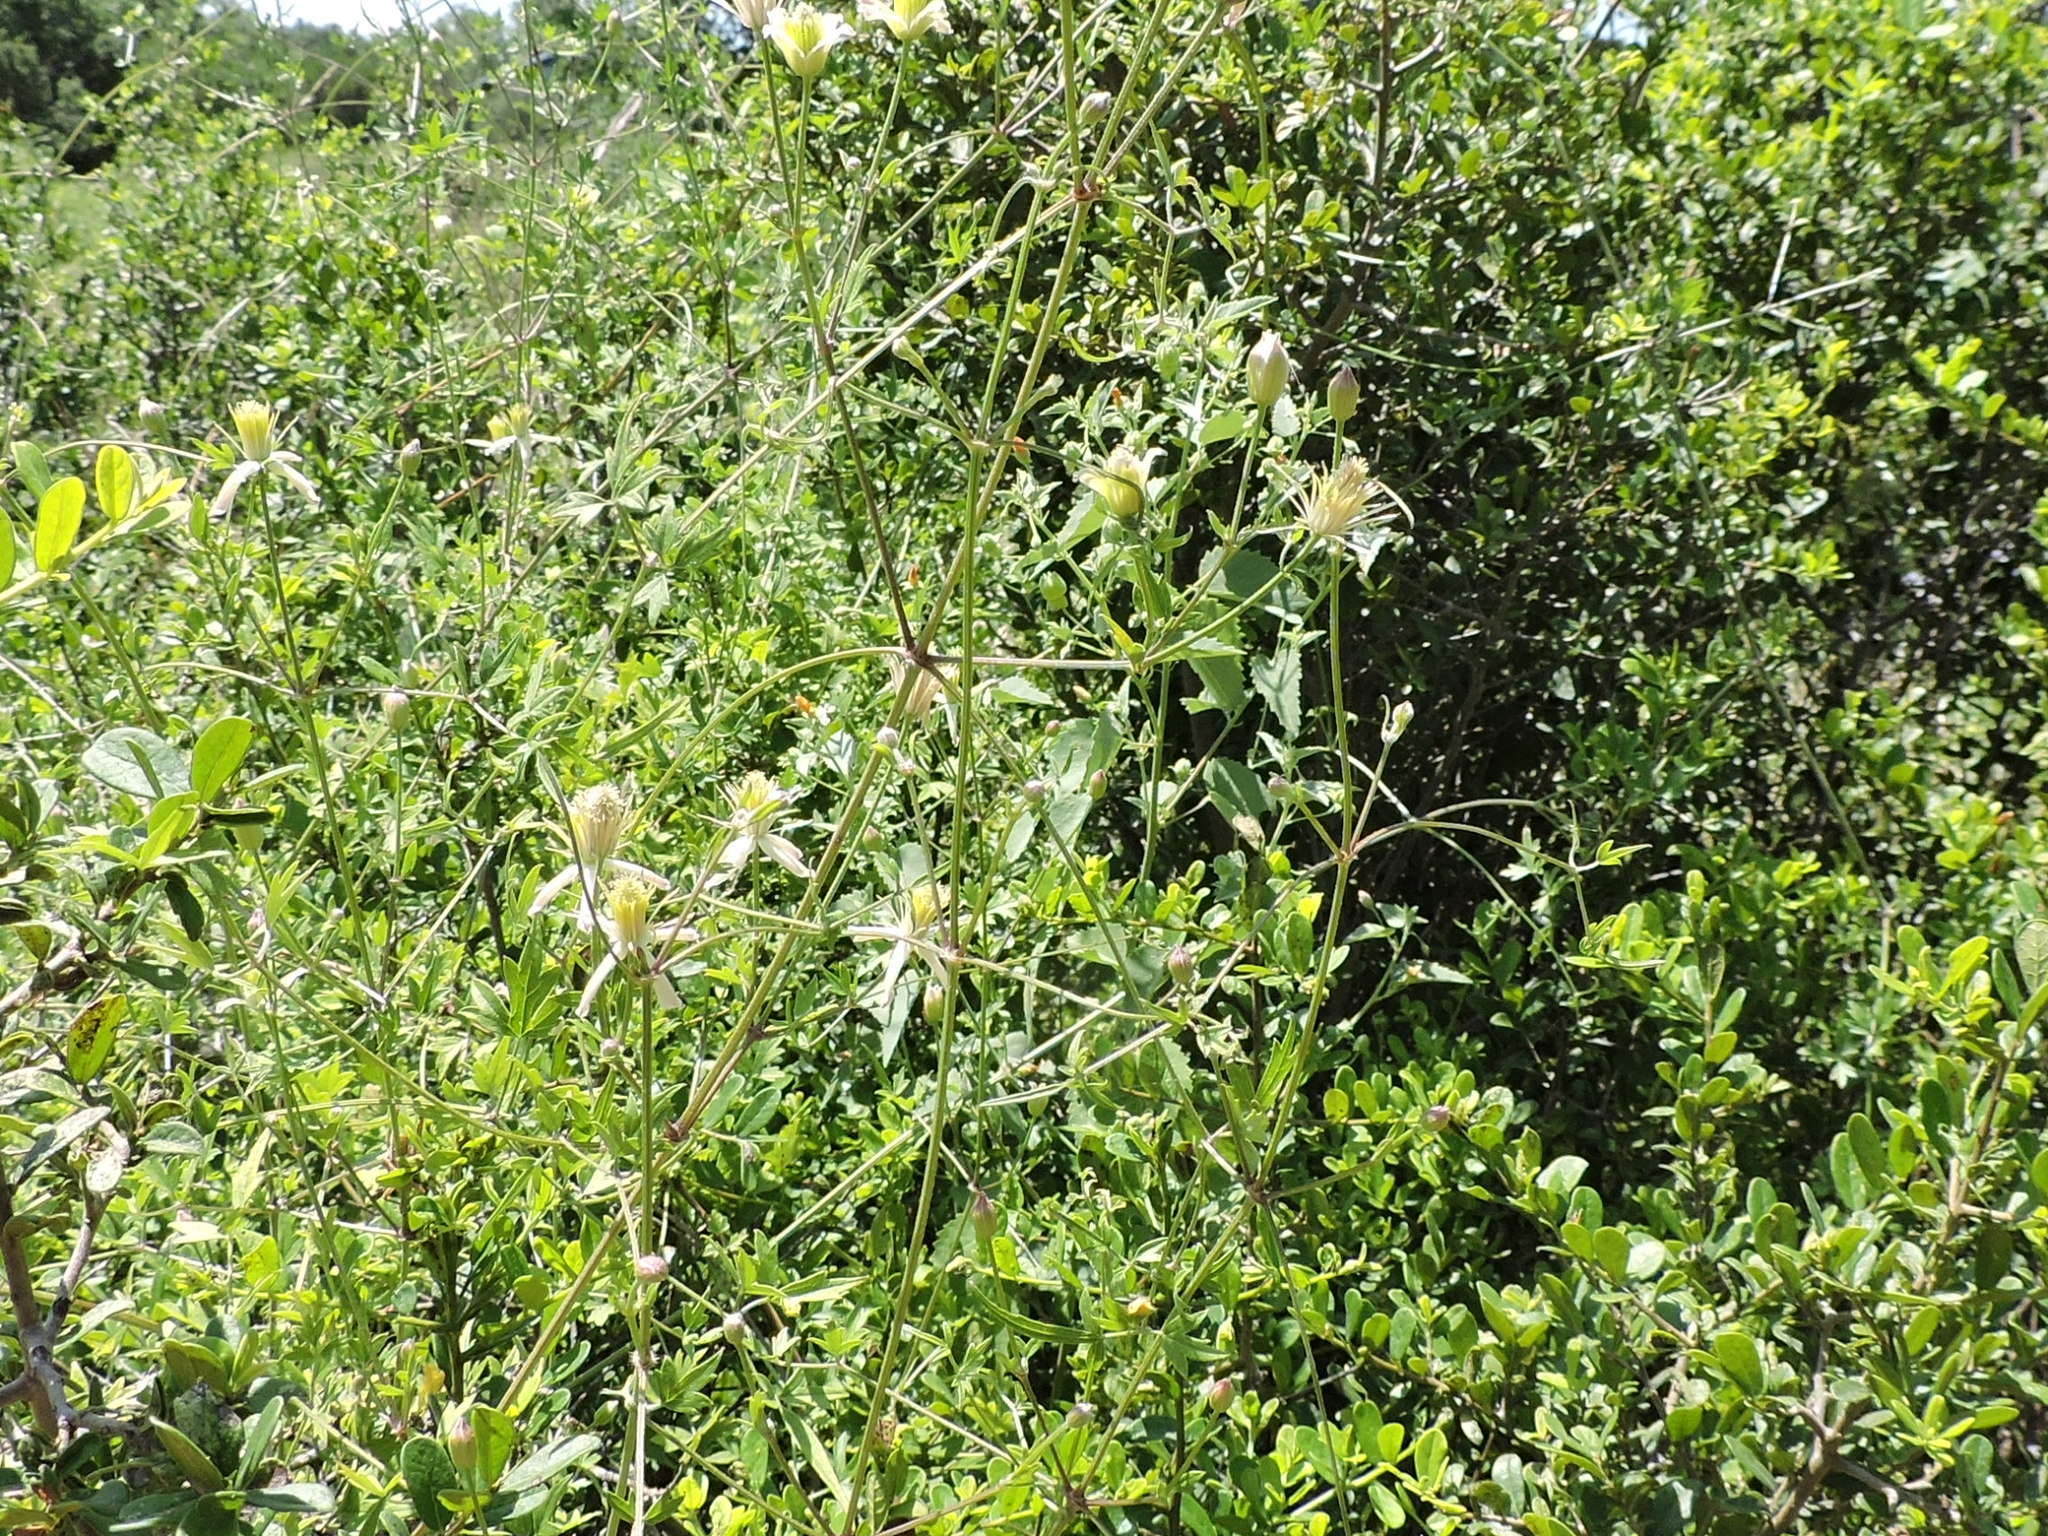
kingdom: Plantae
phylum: Tracheophyta
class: Magnoliopsida
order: Ranunculales
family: Ranunculaceae
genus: Clematis
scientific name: Clematis drummondii
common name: Texas virgin's bower
